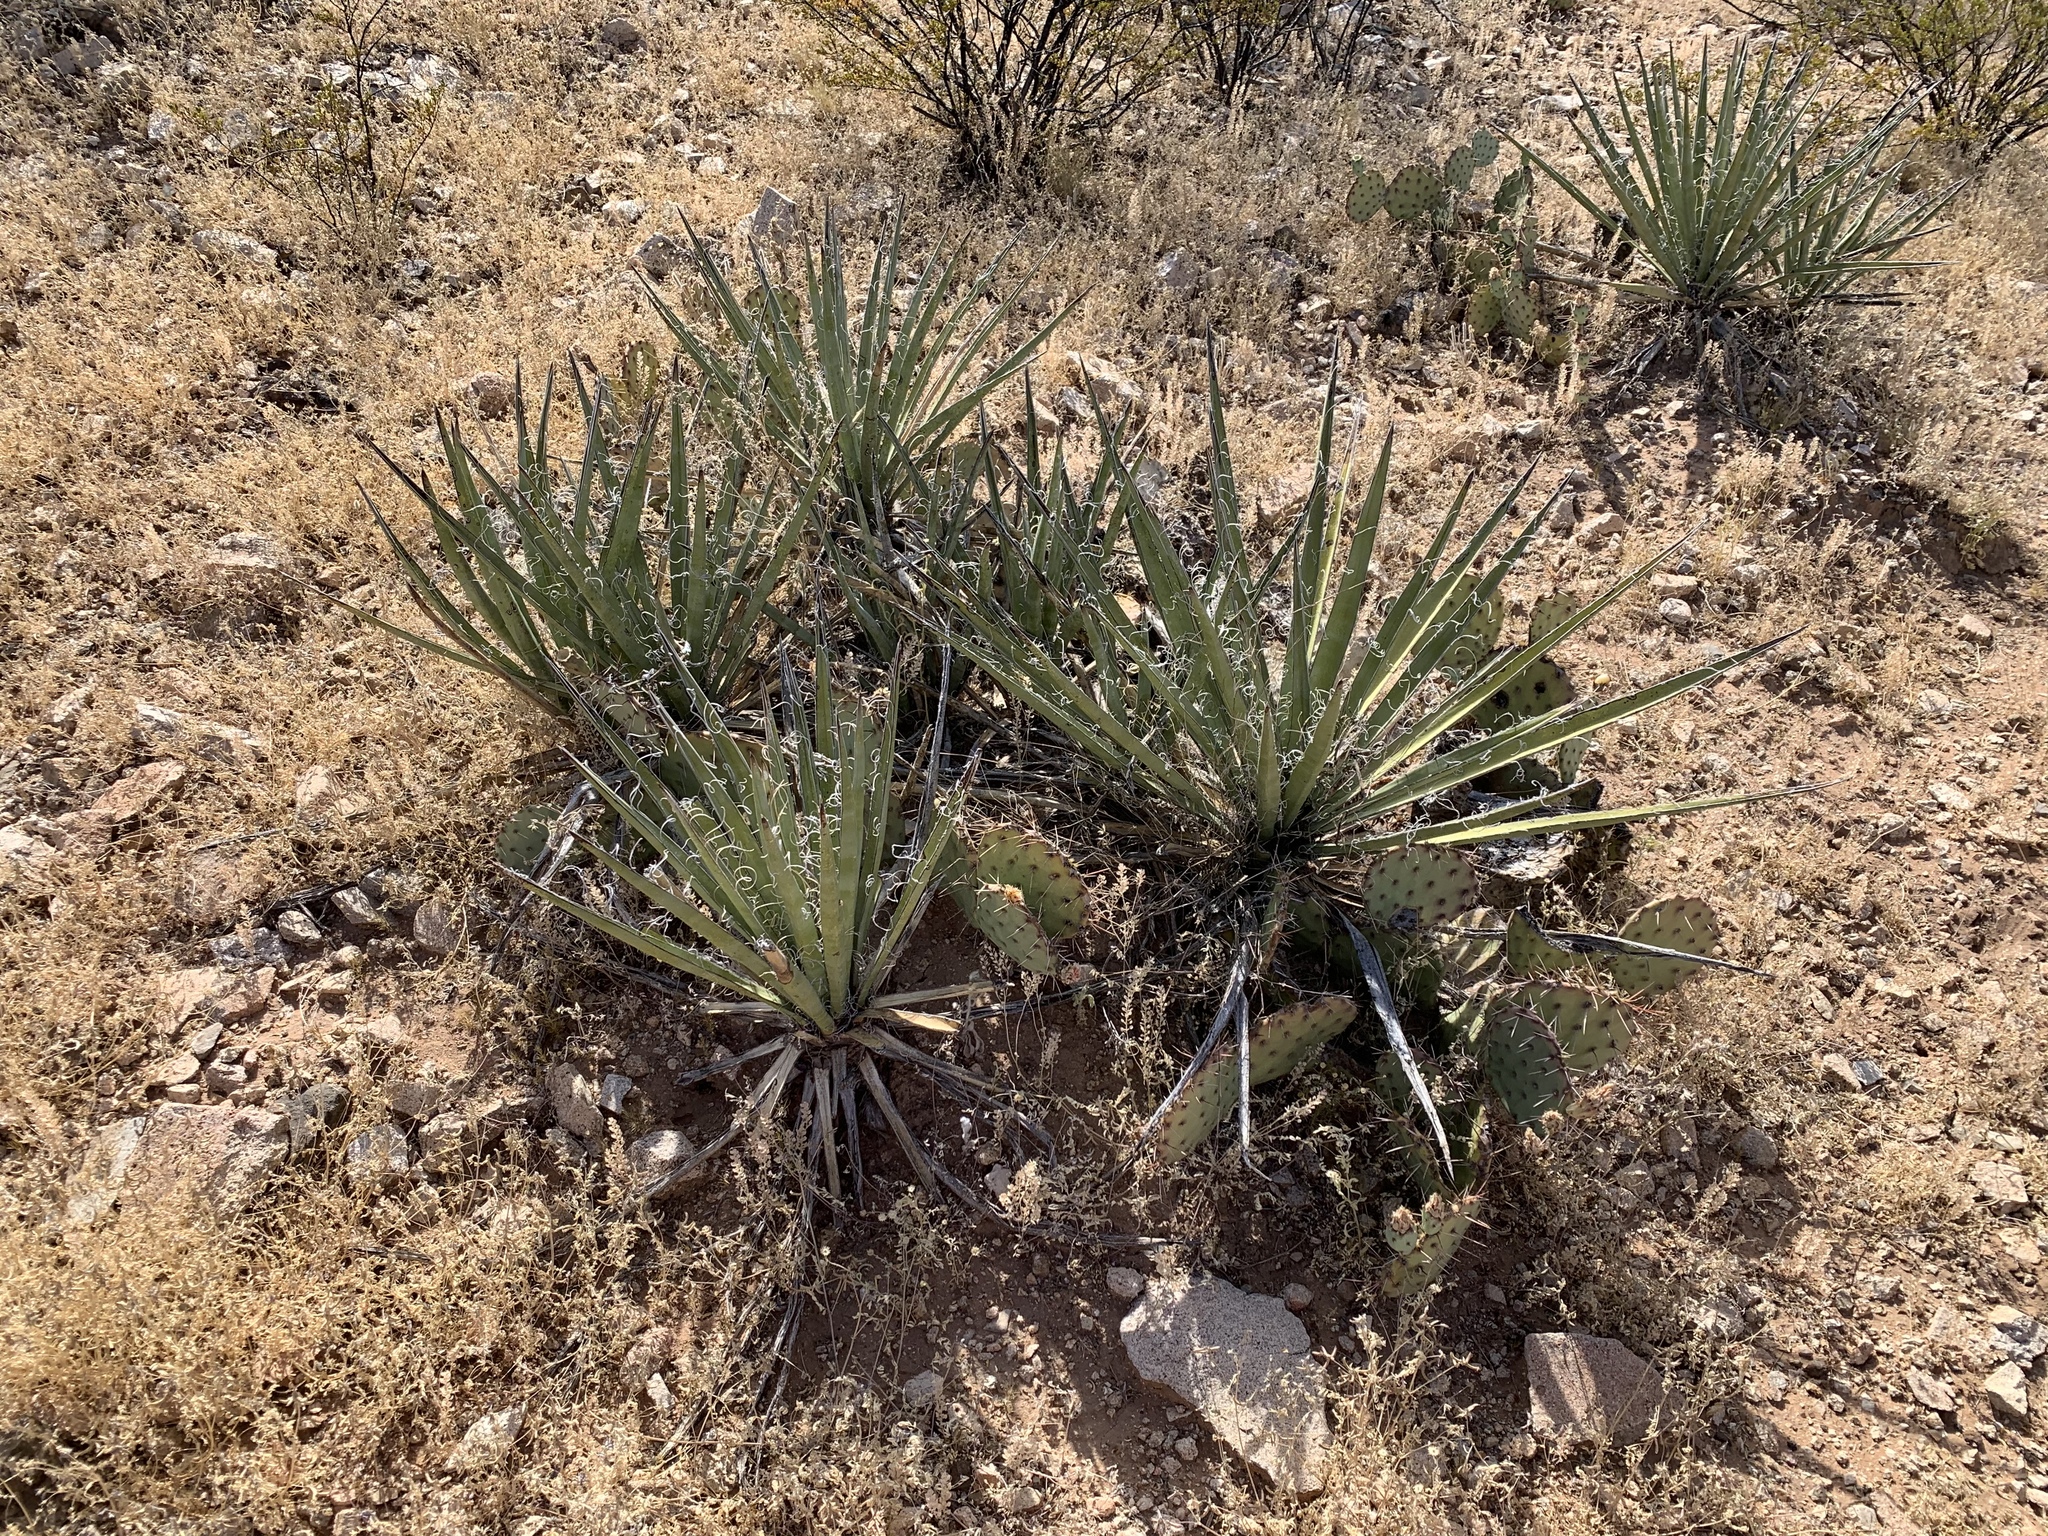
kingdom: Plantae
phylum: Tracheophyta
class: Liliopsida
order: Asparagales
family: Asparagaceae
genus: Yucca
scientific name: Yucca baccata
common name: Banana yucca
